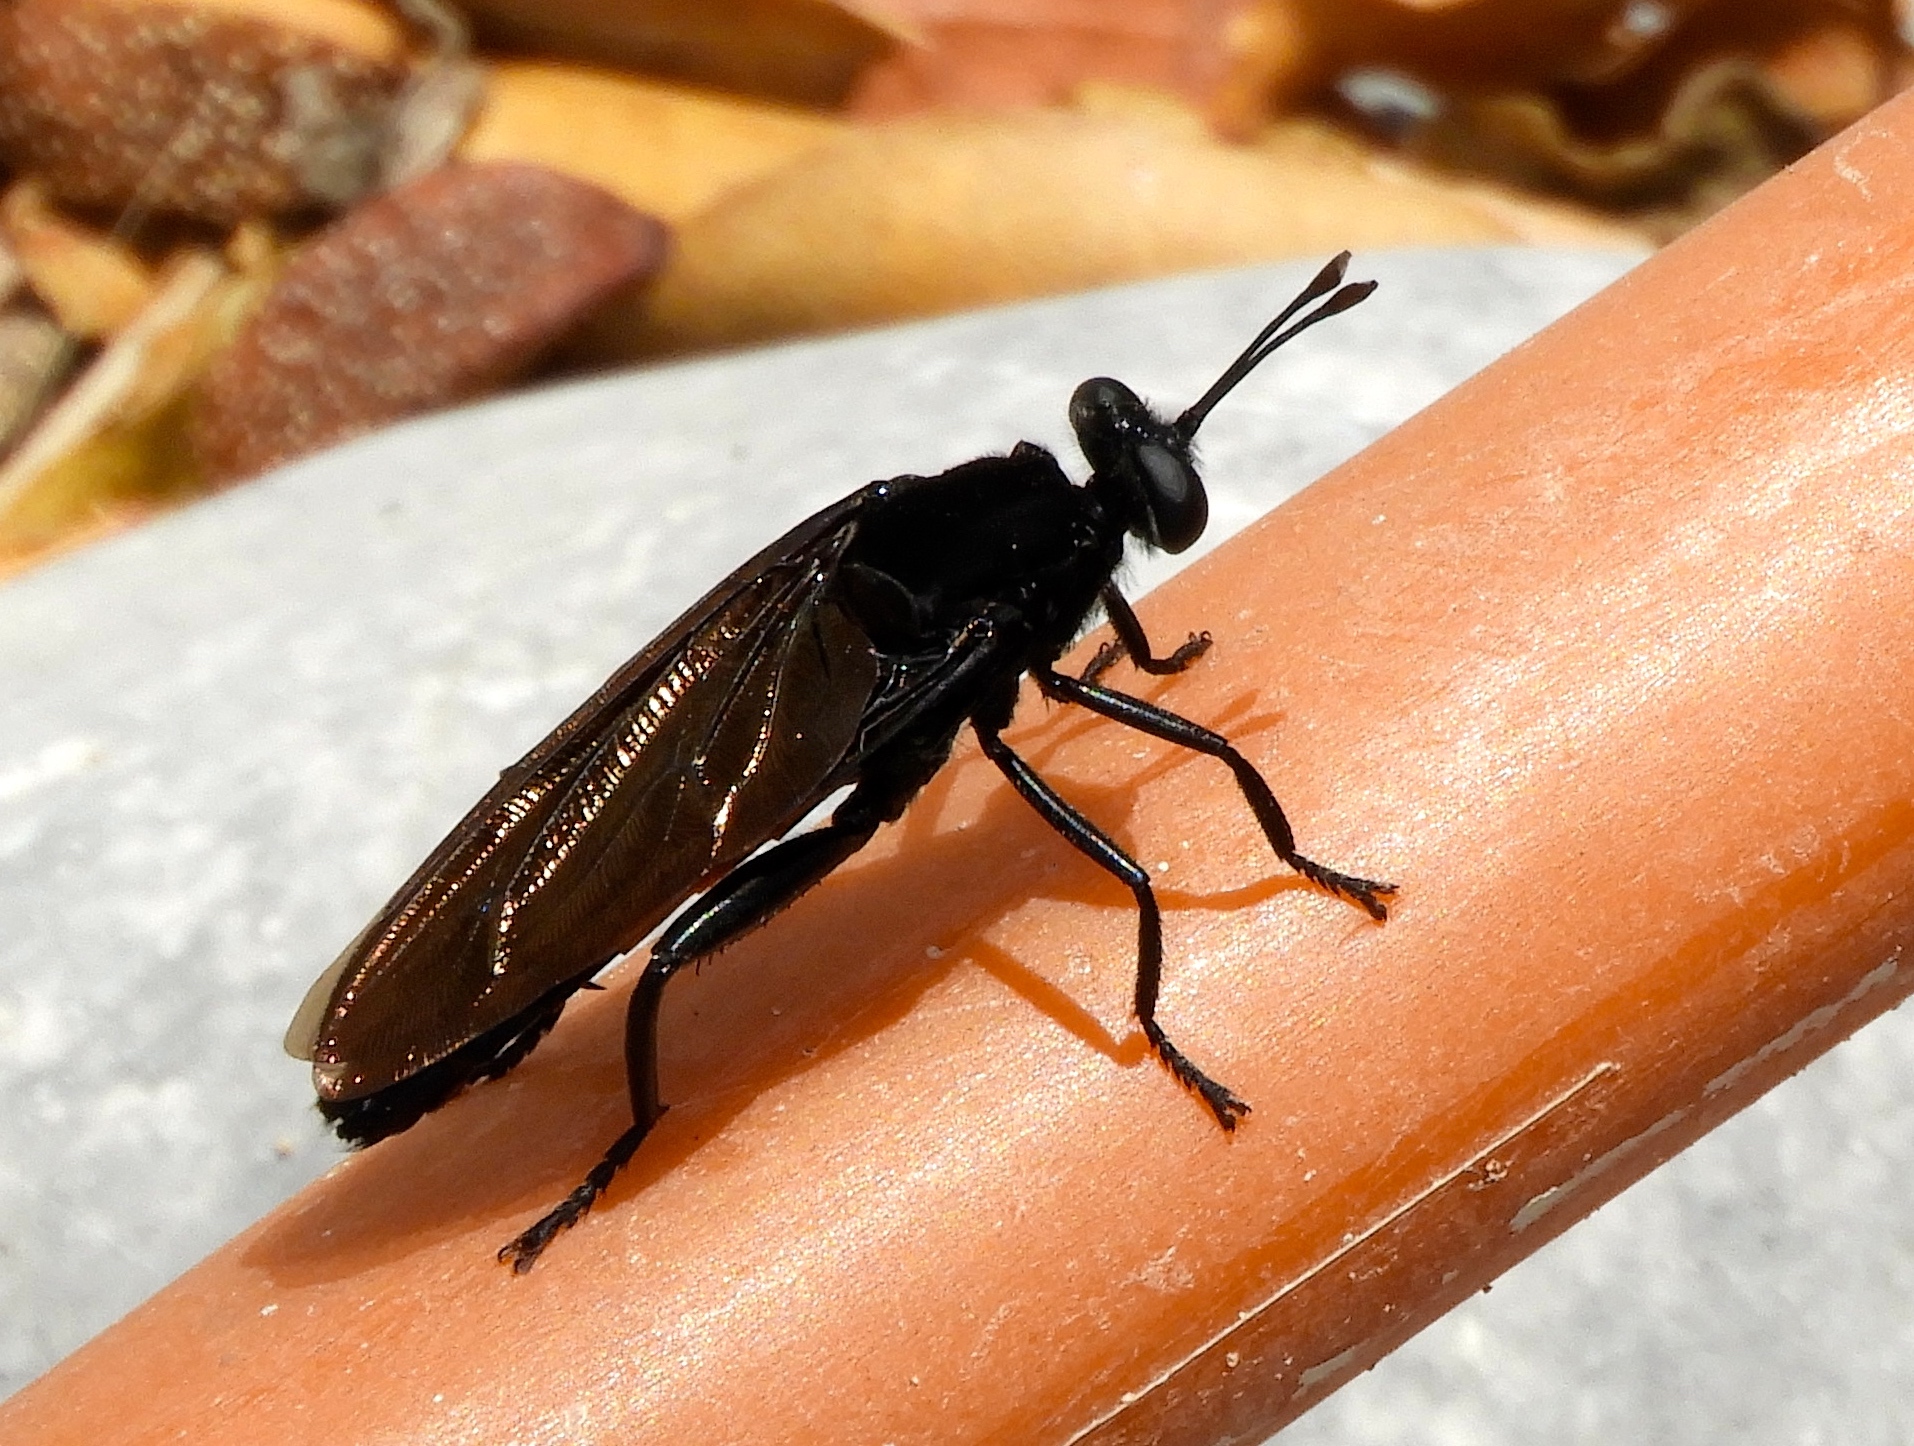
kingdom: Animalia
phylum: Arthropoda
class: Insecta
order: Diptera
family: Mydidae
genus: Mydas
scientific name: Mydas ventralis
